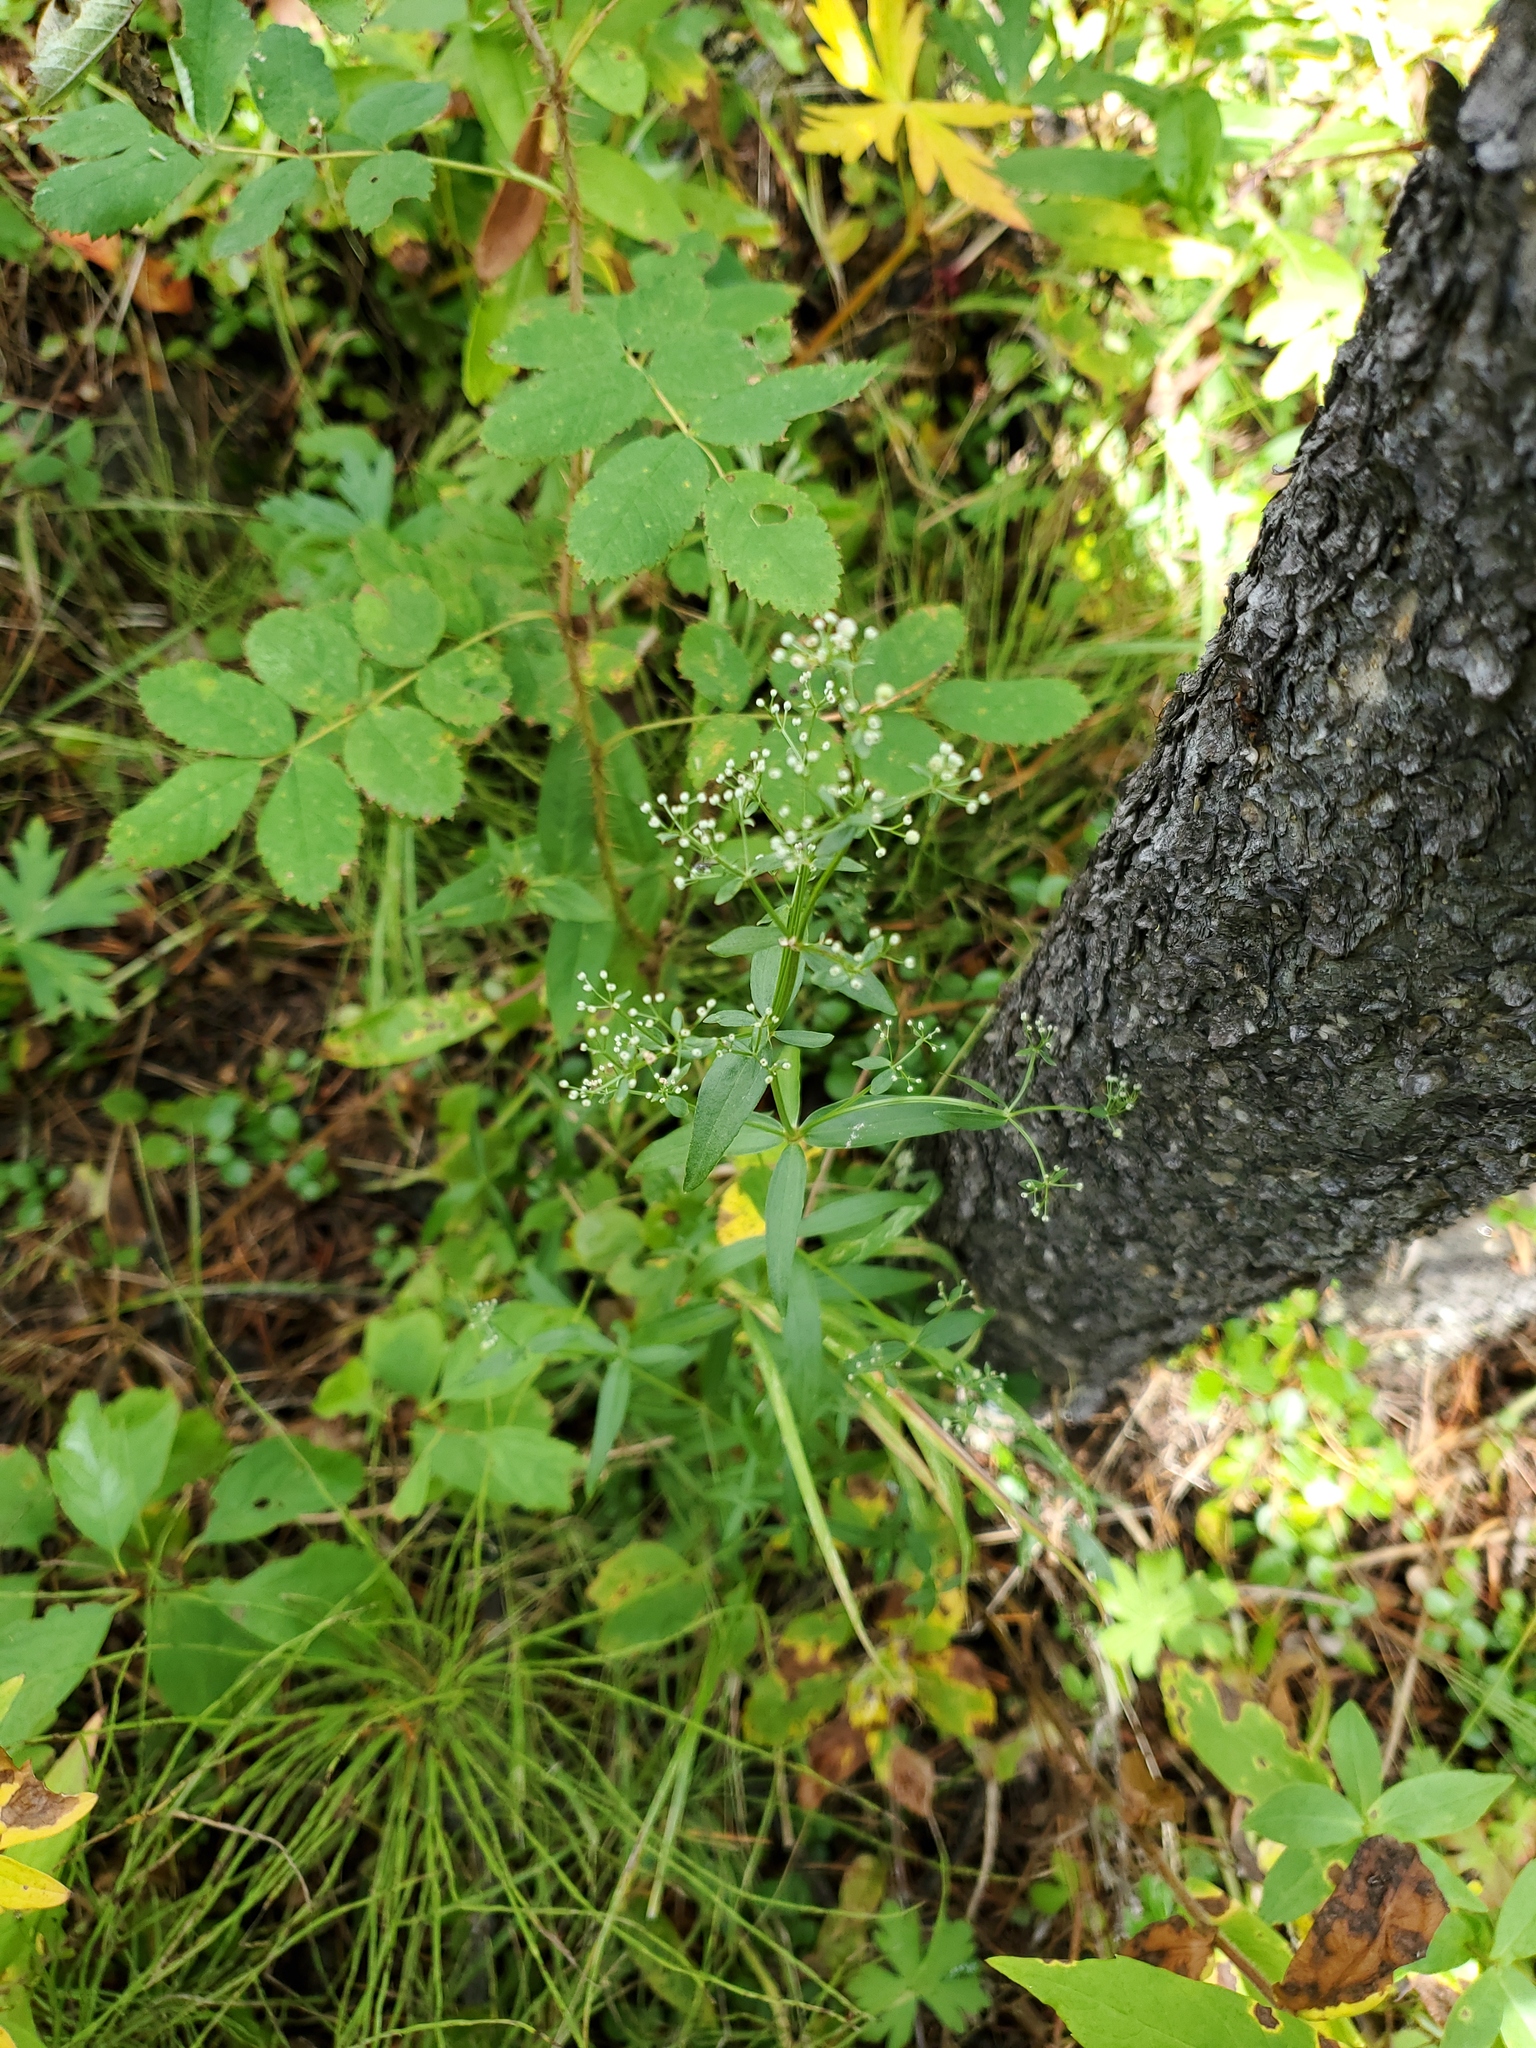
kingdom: Plantae
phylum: Tracheophyta
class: Magnoliopsida
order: Gentianales
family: Rubiaceae
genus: Galium
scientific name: Galium boreale
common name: Northern bedstraw
